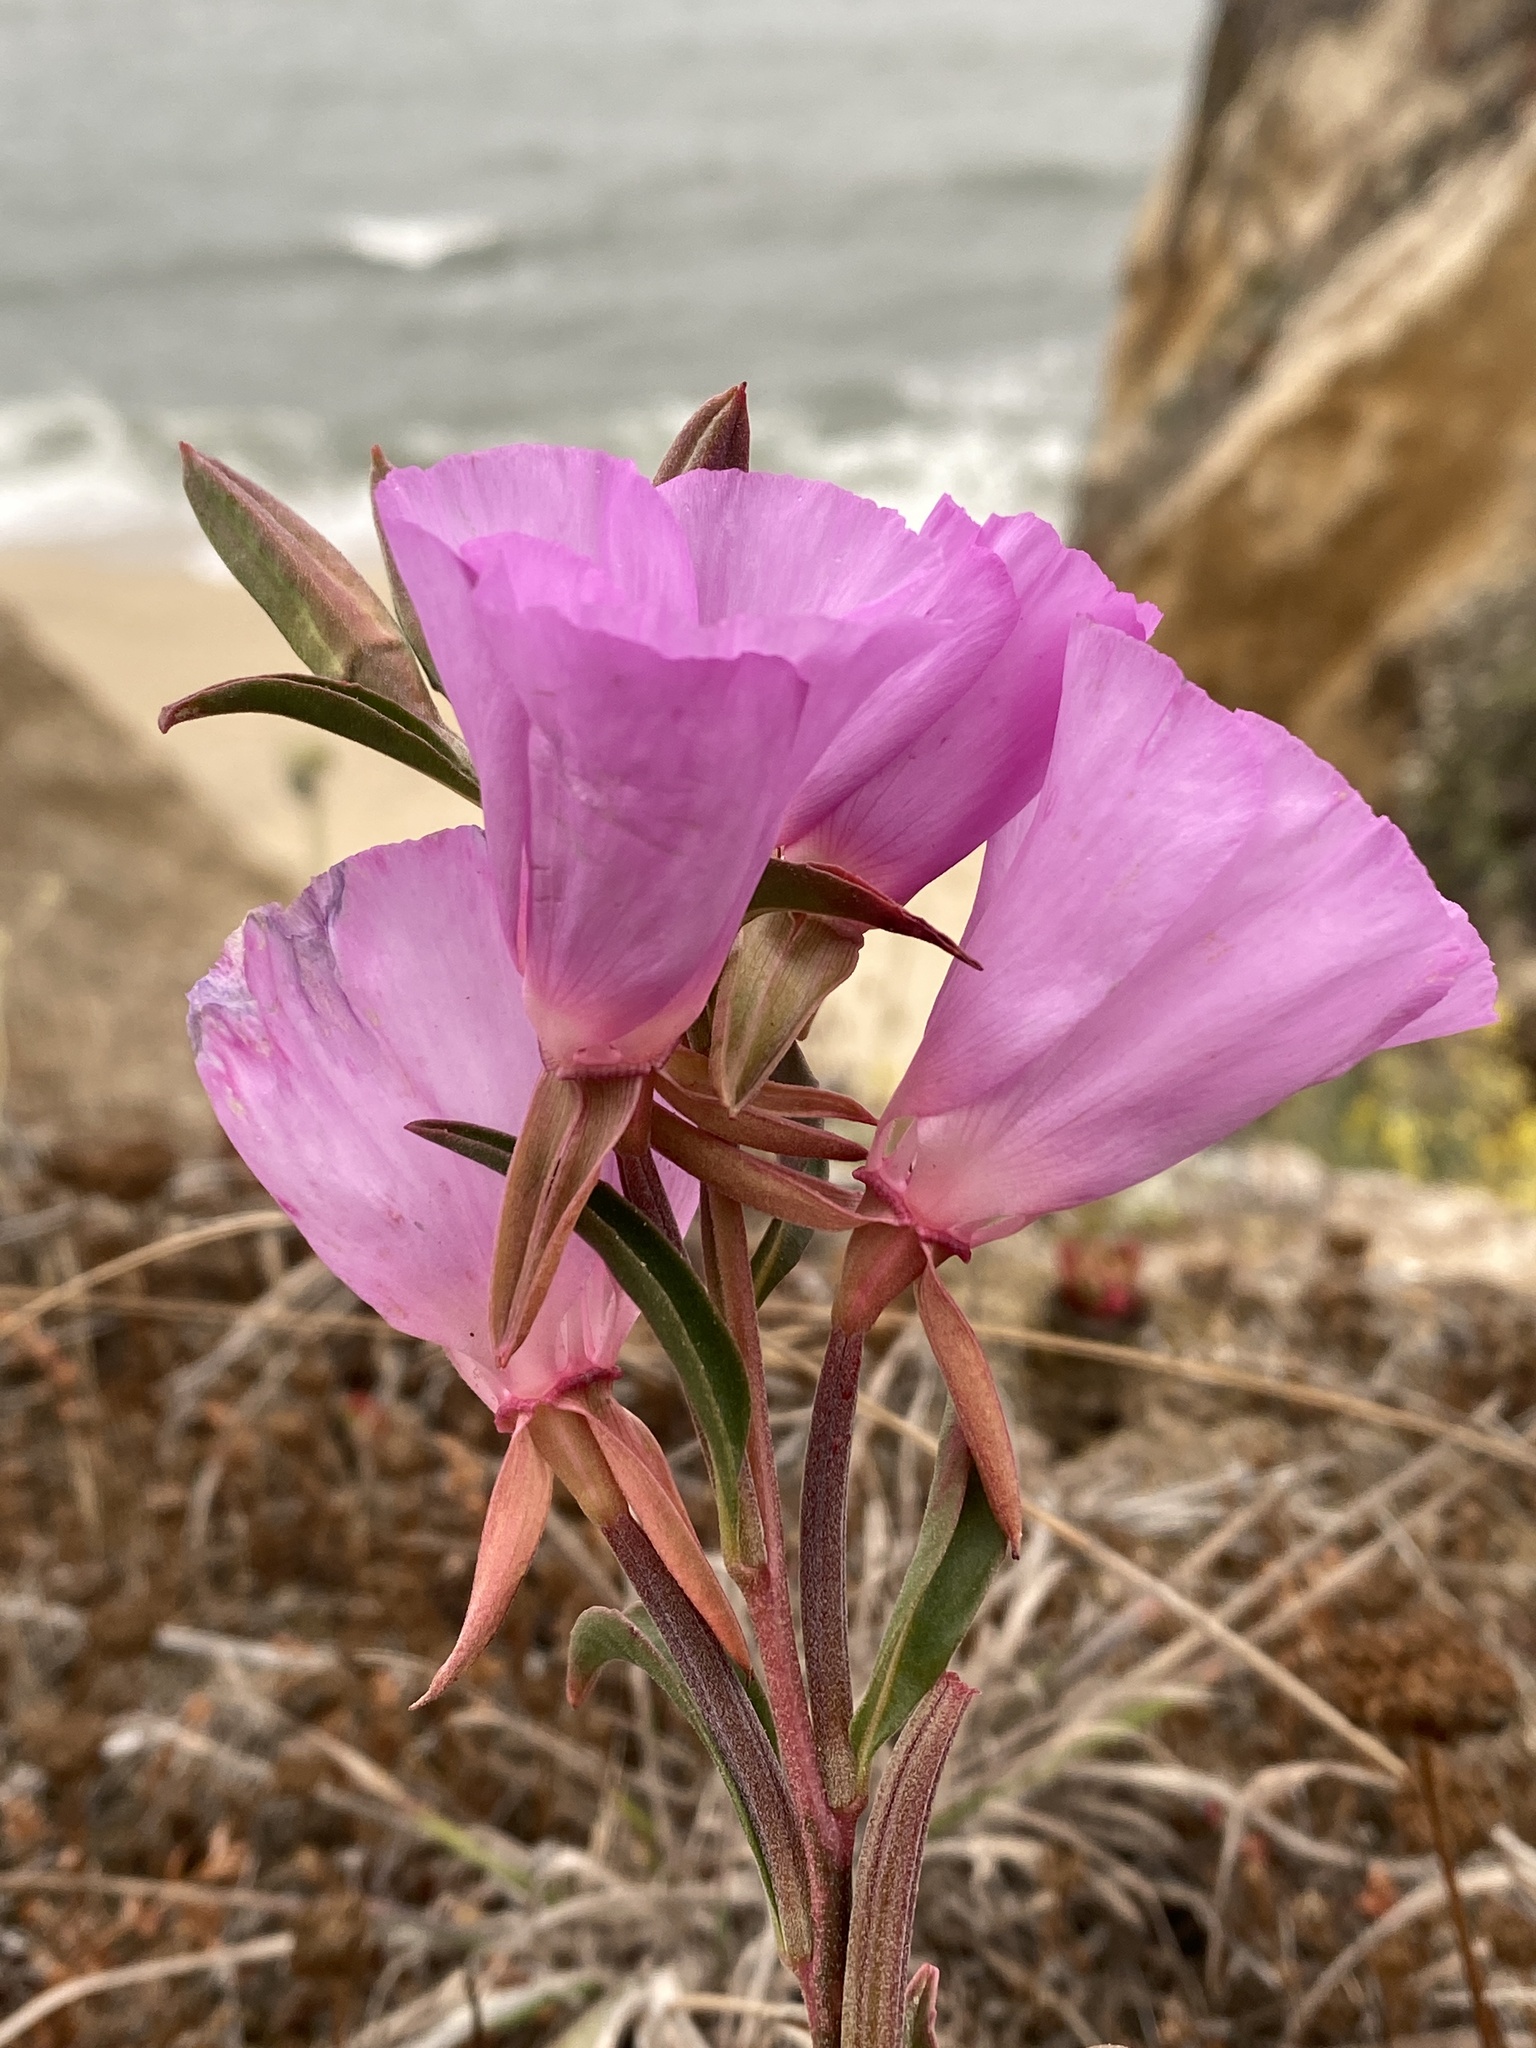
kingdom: Plantae
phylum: Tracheophyta
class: Magnoliopsida
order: Myrtales
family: Onagraceae
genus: Clarkia
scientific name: Clarkia rubicunda
